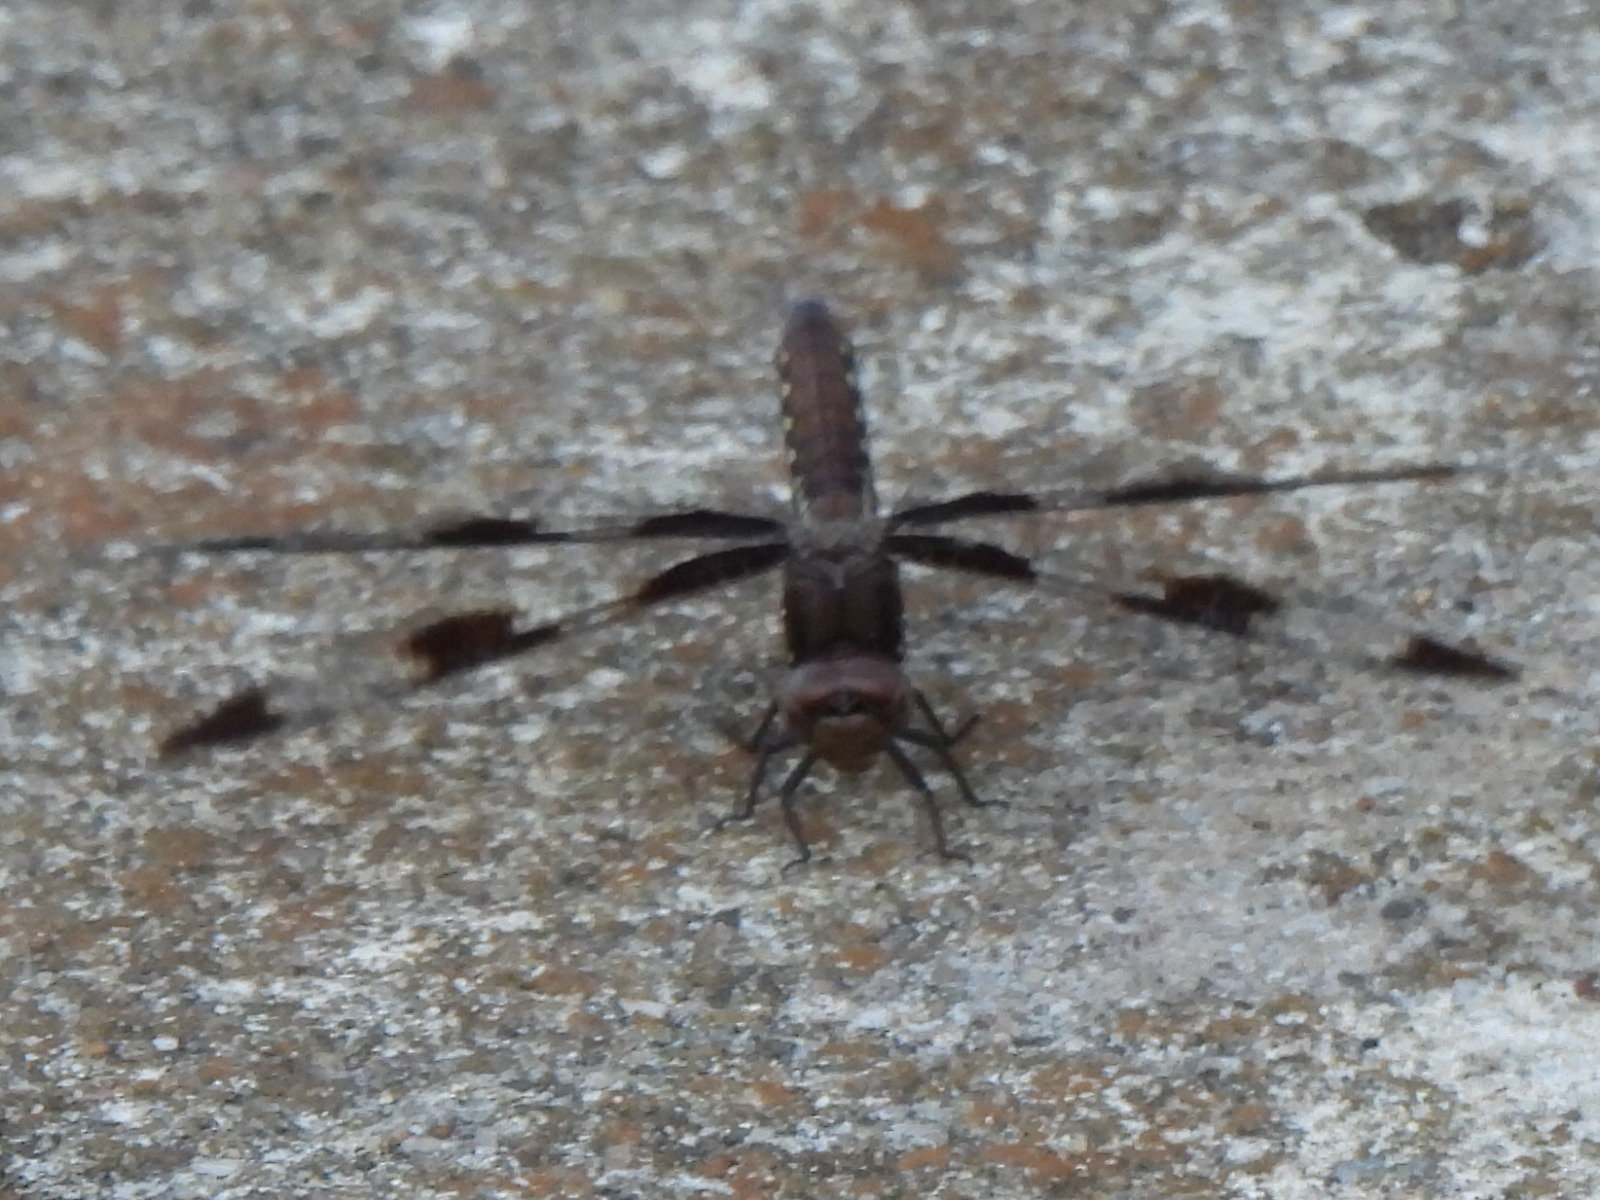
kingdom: Animalia
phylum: Arthropoda
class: Insecta
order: Odonata
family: Libellulidae
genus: Plathemis
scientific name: Plathemis lydia
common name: Common whitetail
